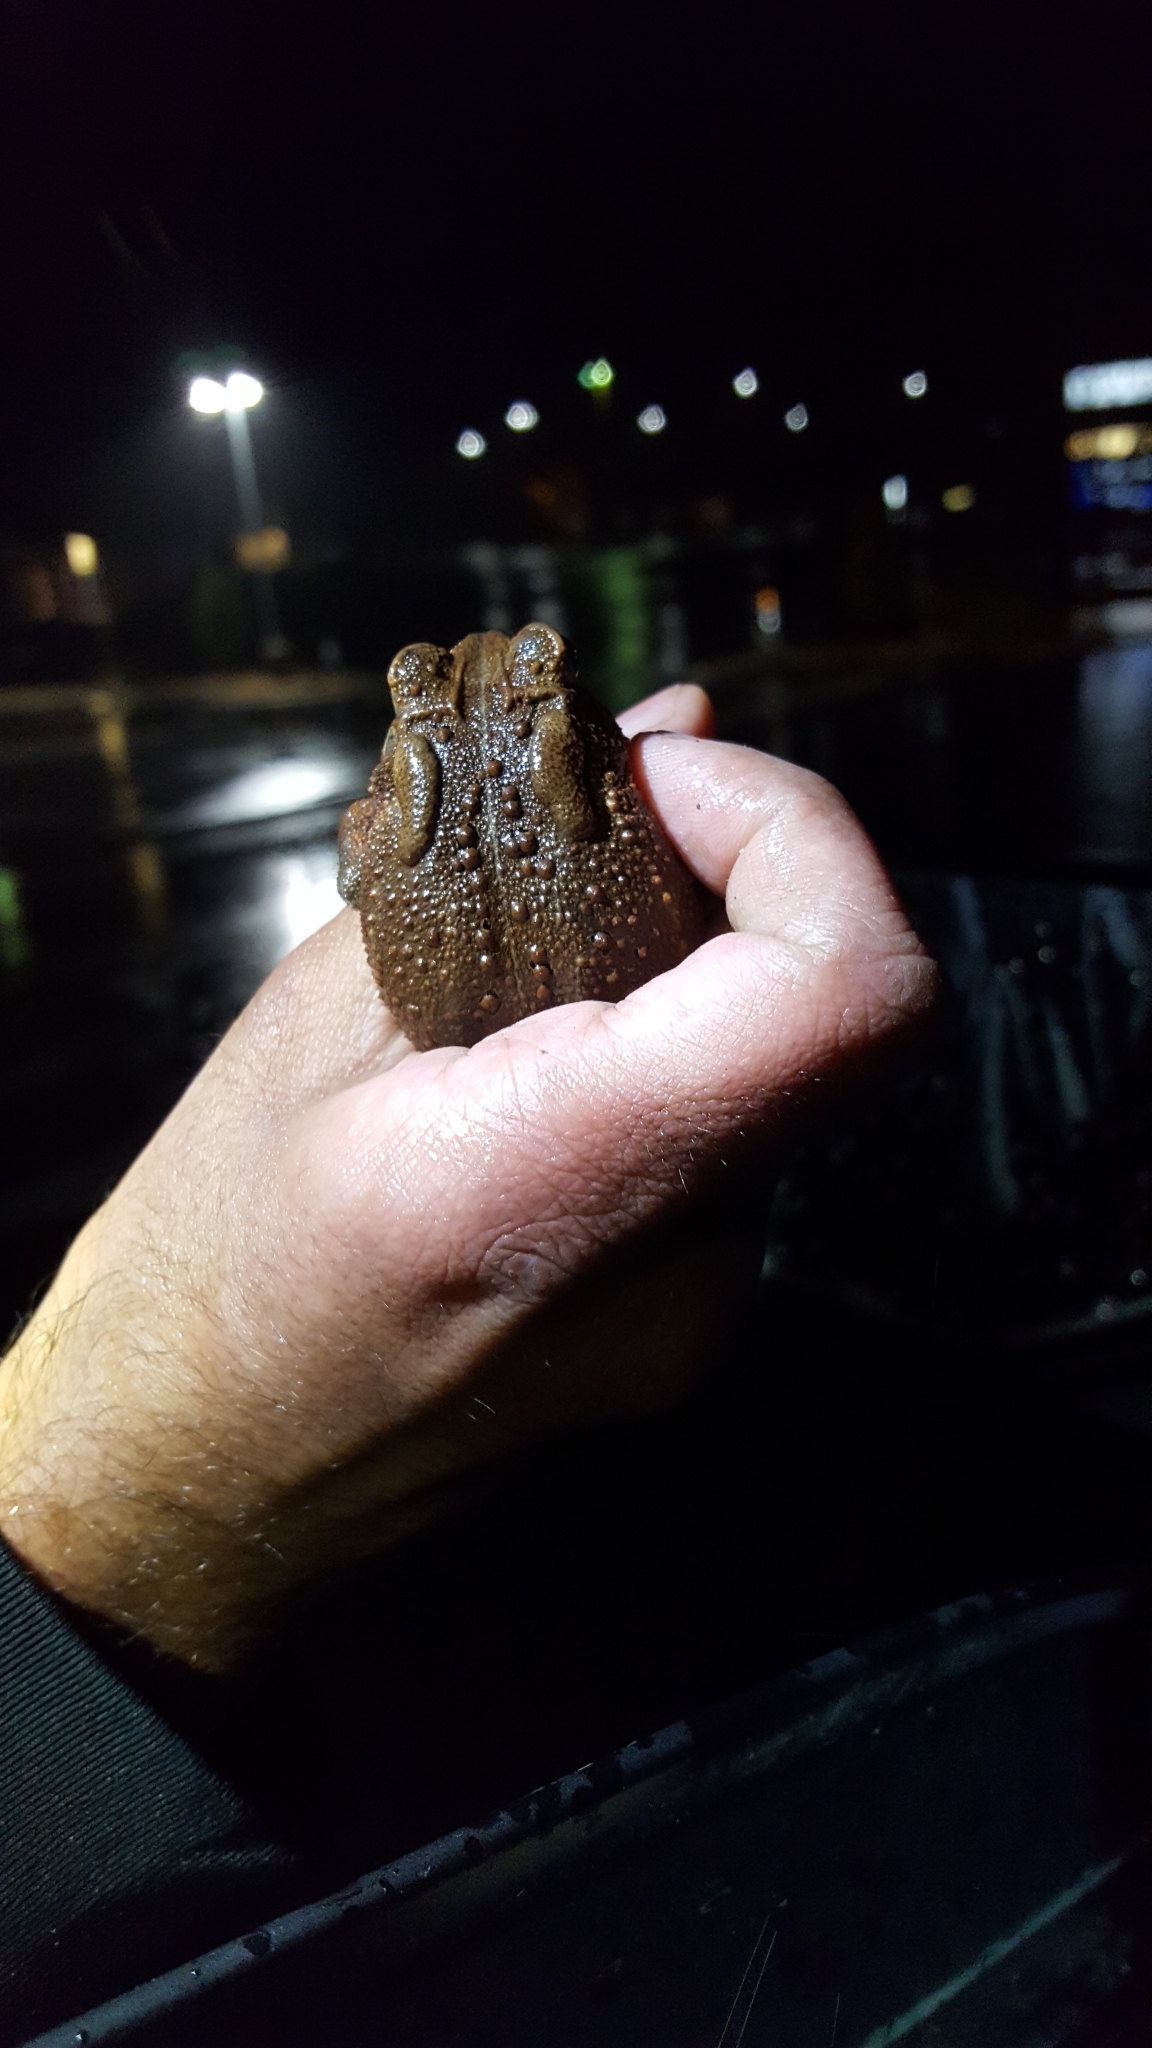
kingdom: Animalia
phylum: Chordata
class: Amphibia
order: Anura
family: Bufonidae
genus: Anaxyrus
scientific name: Anaxyrus americanus
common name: American toad
